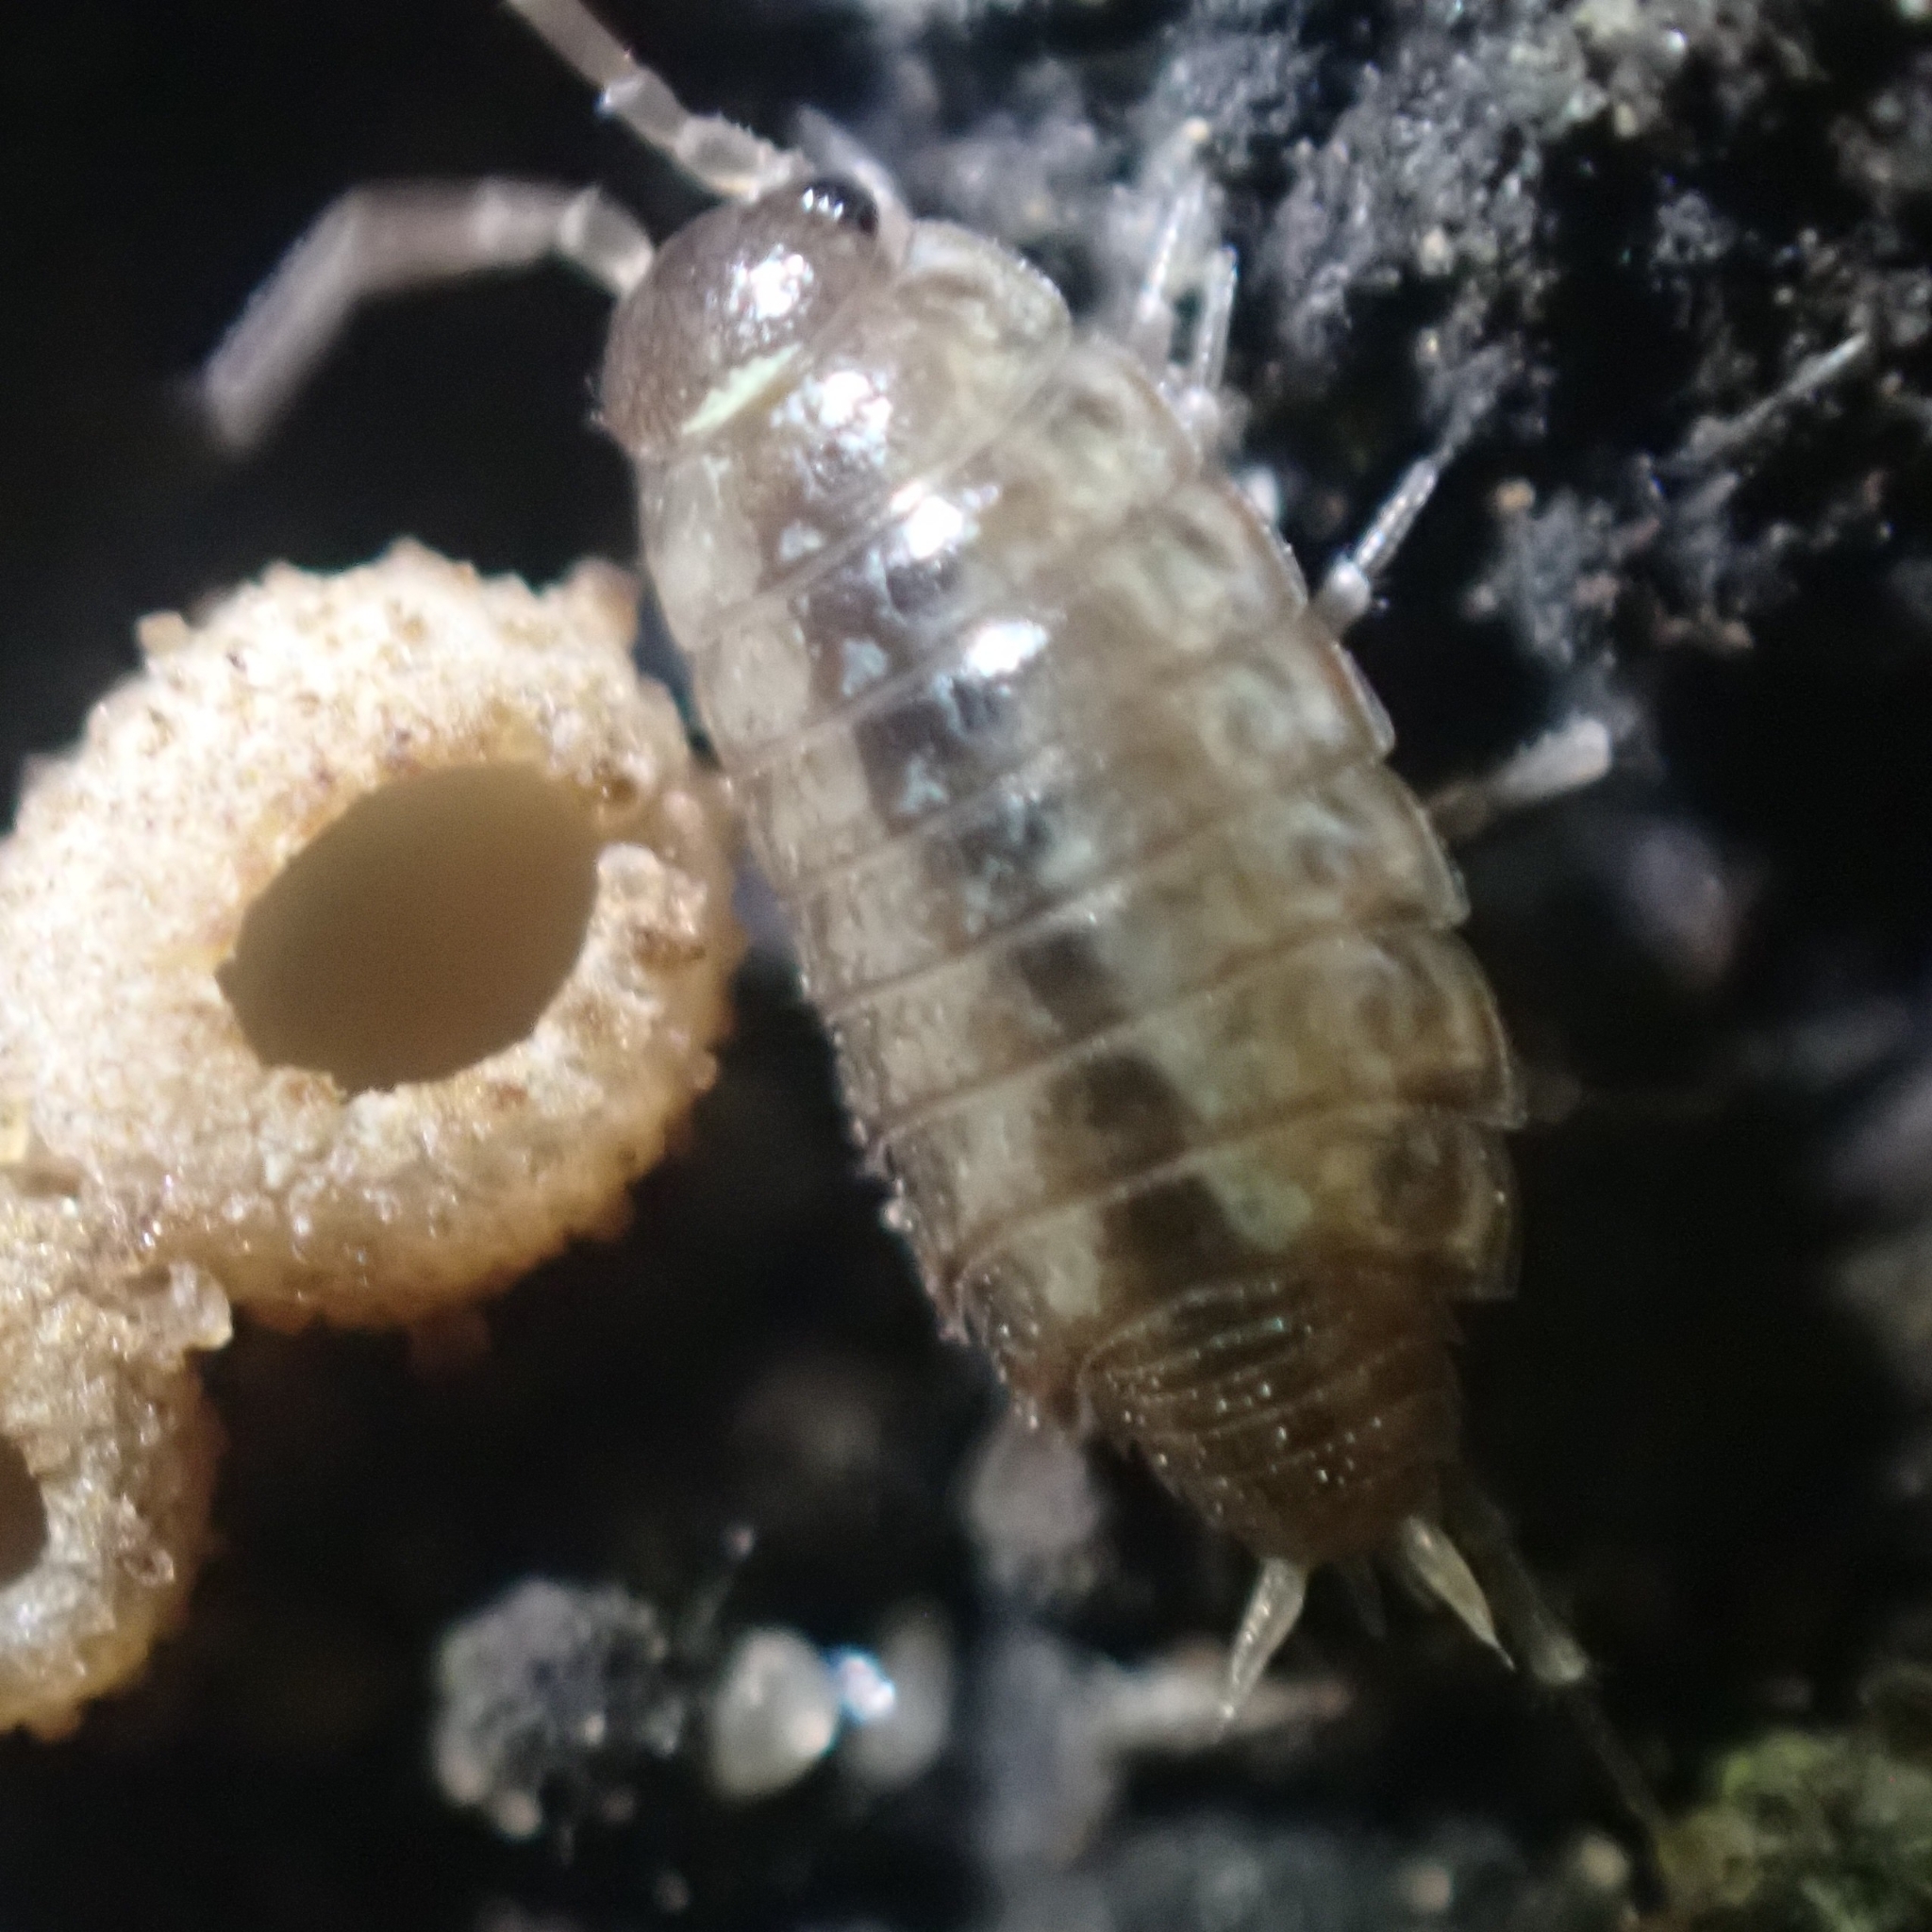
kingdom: Animalia
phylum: Arthropoda
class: Malacostraca
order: Isopoda
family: Philosciidae
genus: Philoscia
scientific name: Philoscia muscorum
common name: Common striped woodlouse
